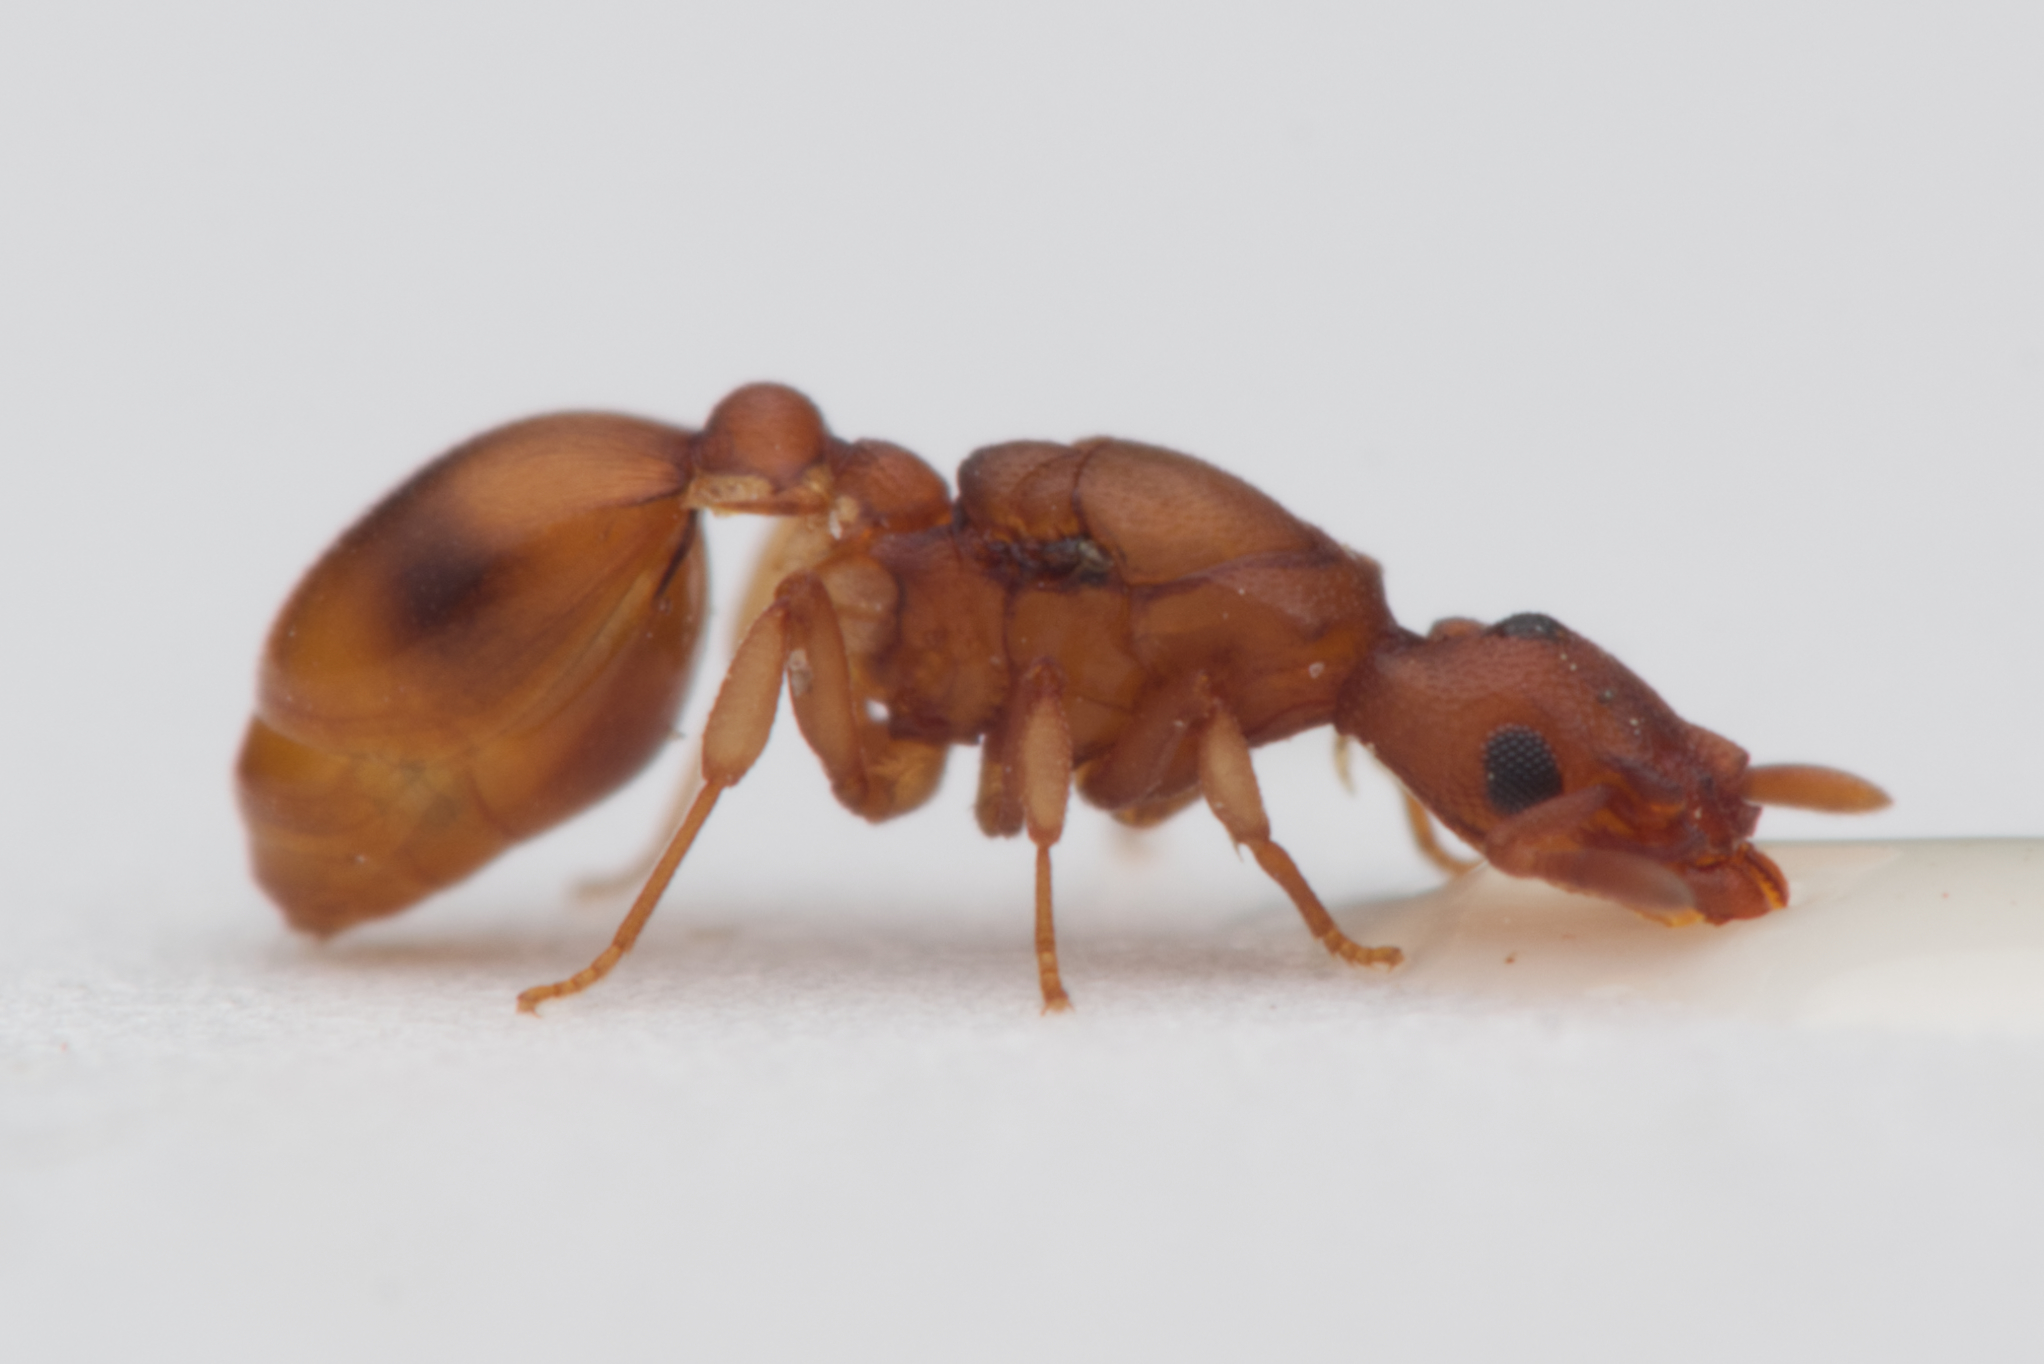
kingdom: Animalia
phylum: Arthropoda
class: Insecta
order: Hymenoptera
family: Formicidae
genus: Colobostruma
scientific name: Colobostruma
